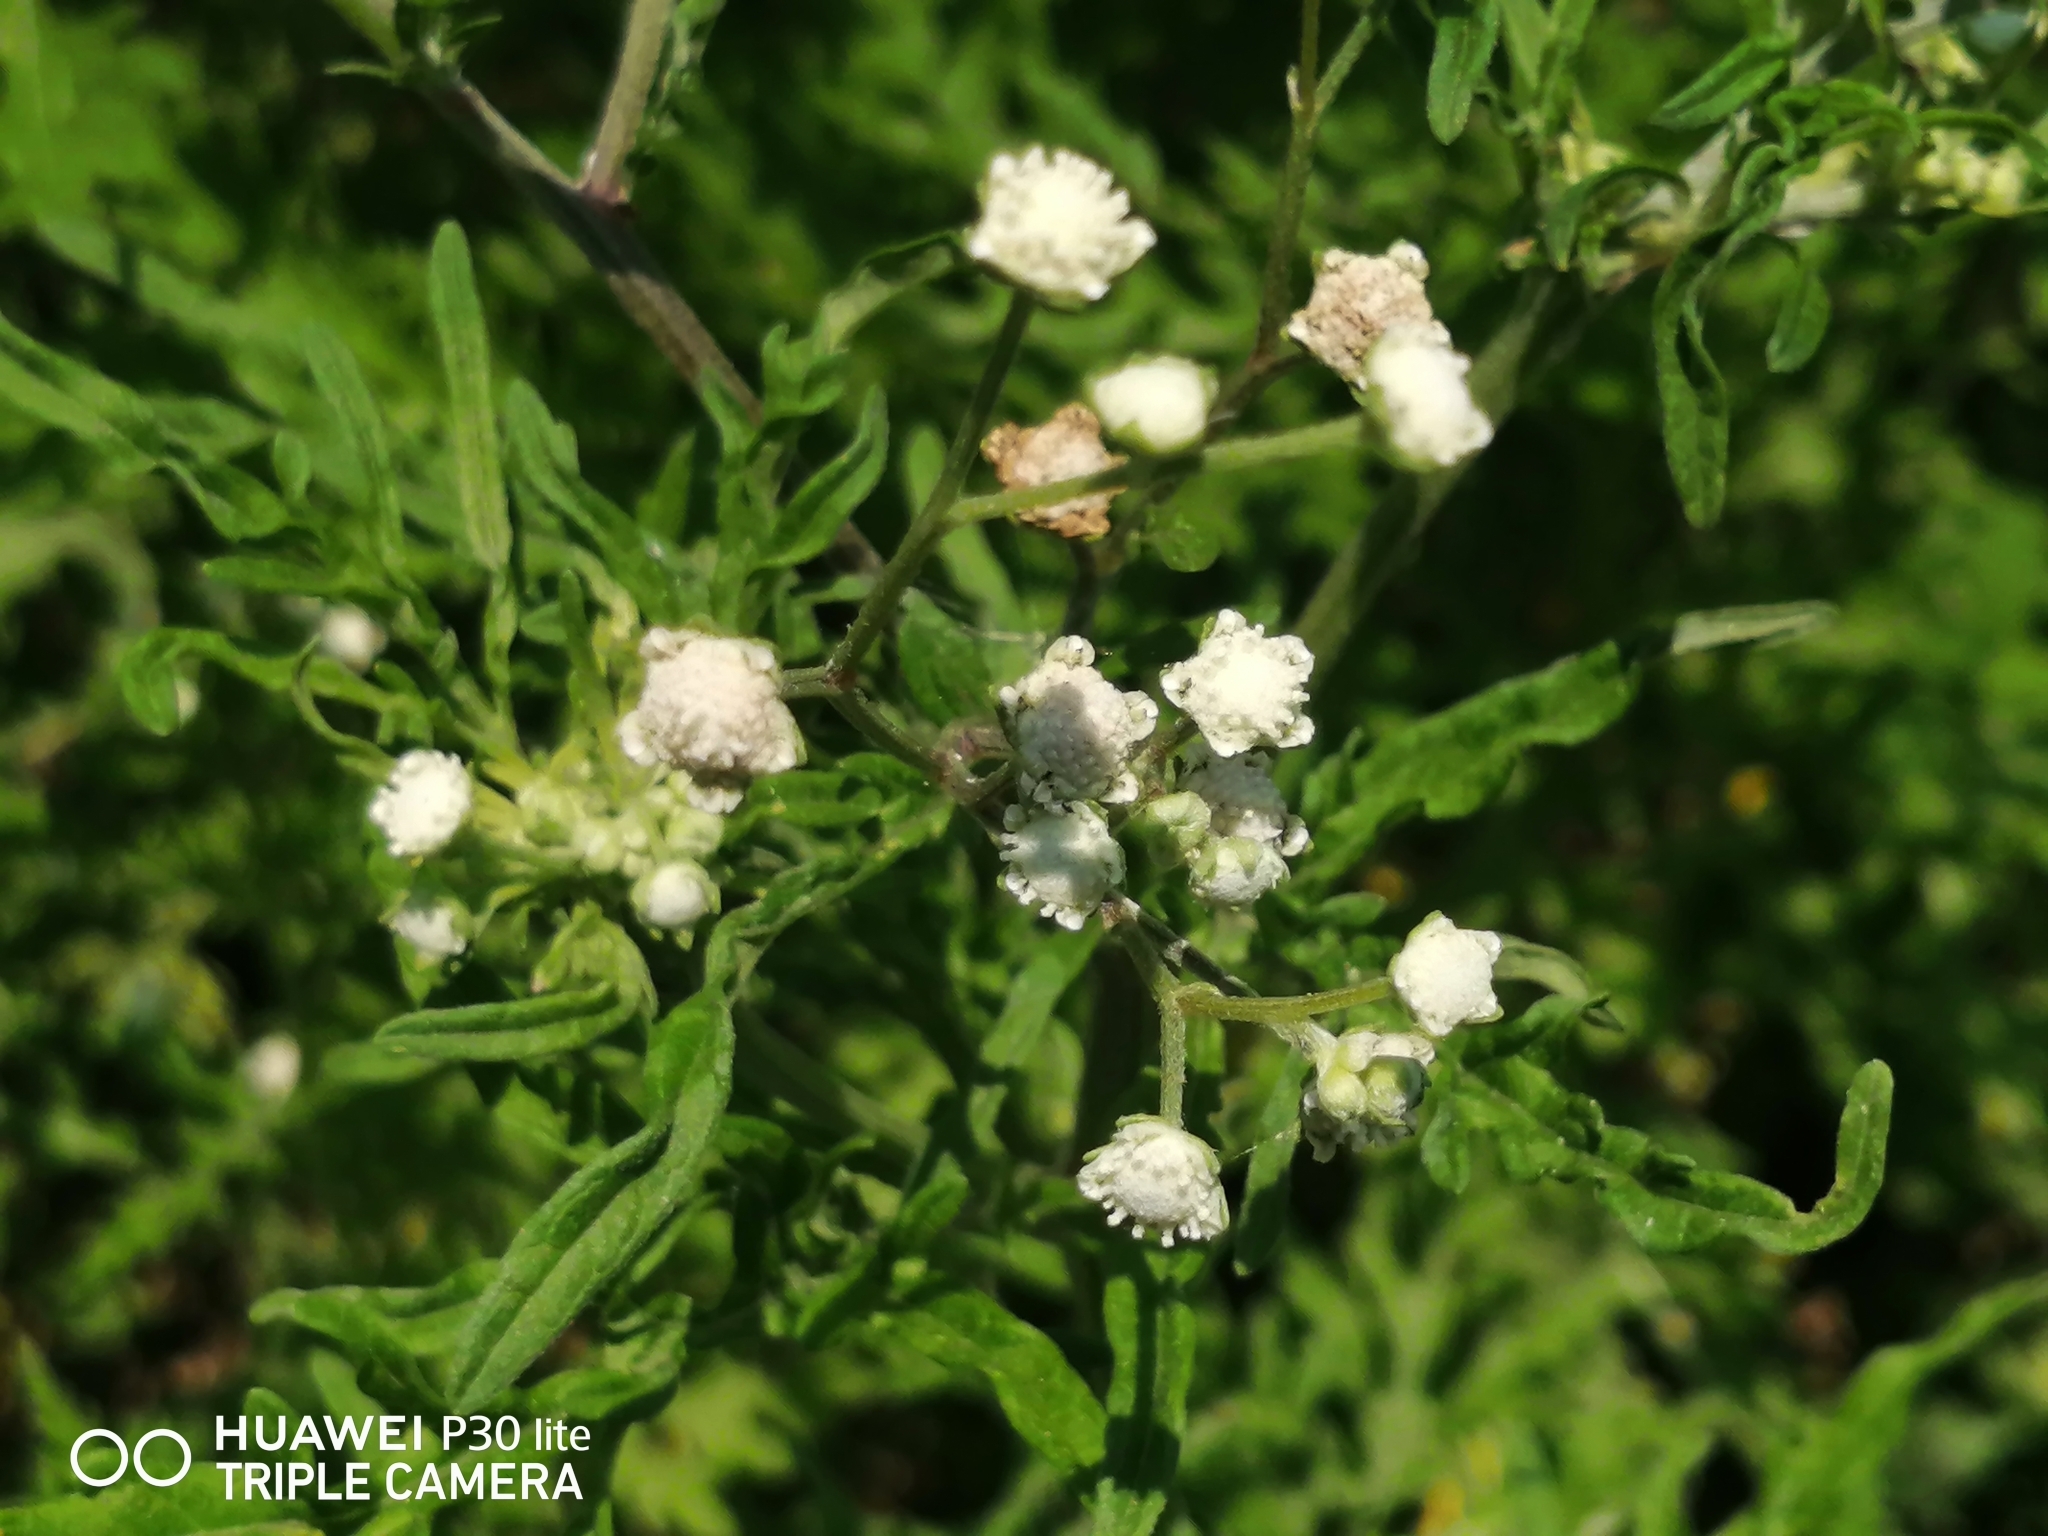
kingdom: Plantae
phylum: Tracheophyta
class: Magnoliopsida
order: Asterales
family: Asteraceae
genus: Parthenium
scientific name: Parthenium hysterophorus
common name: Santa maria feverfew
